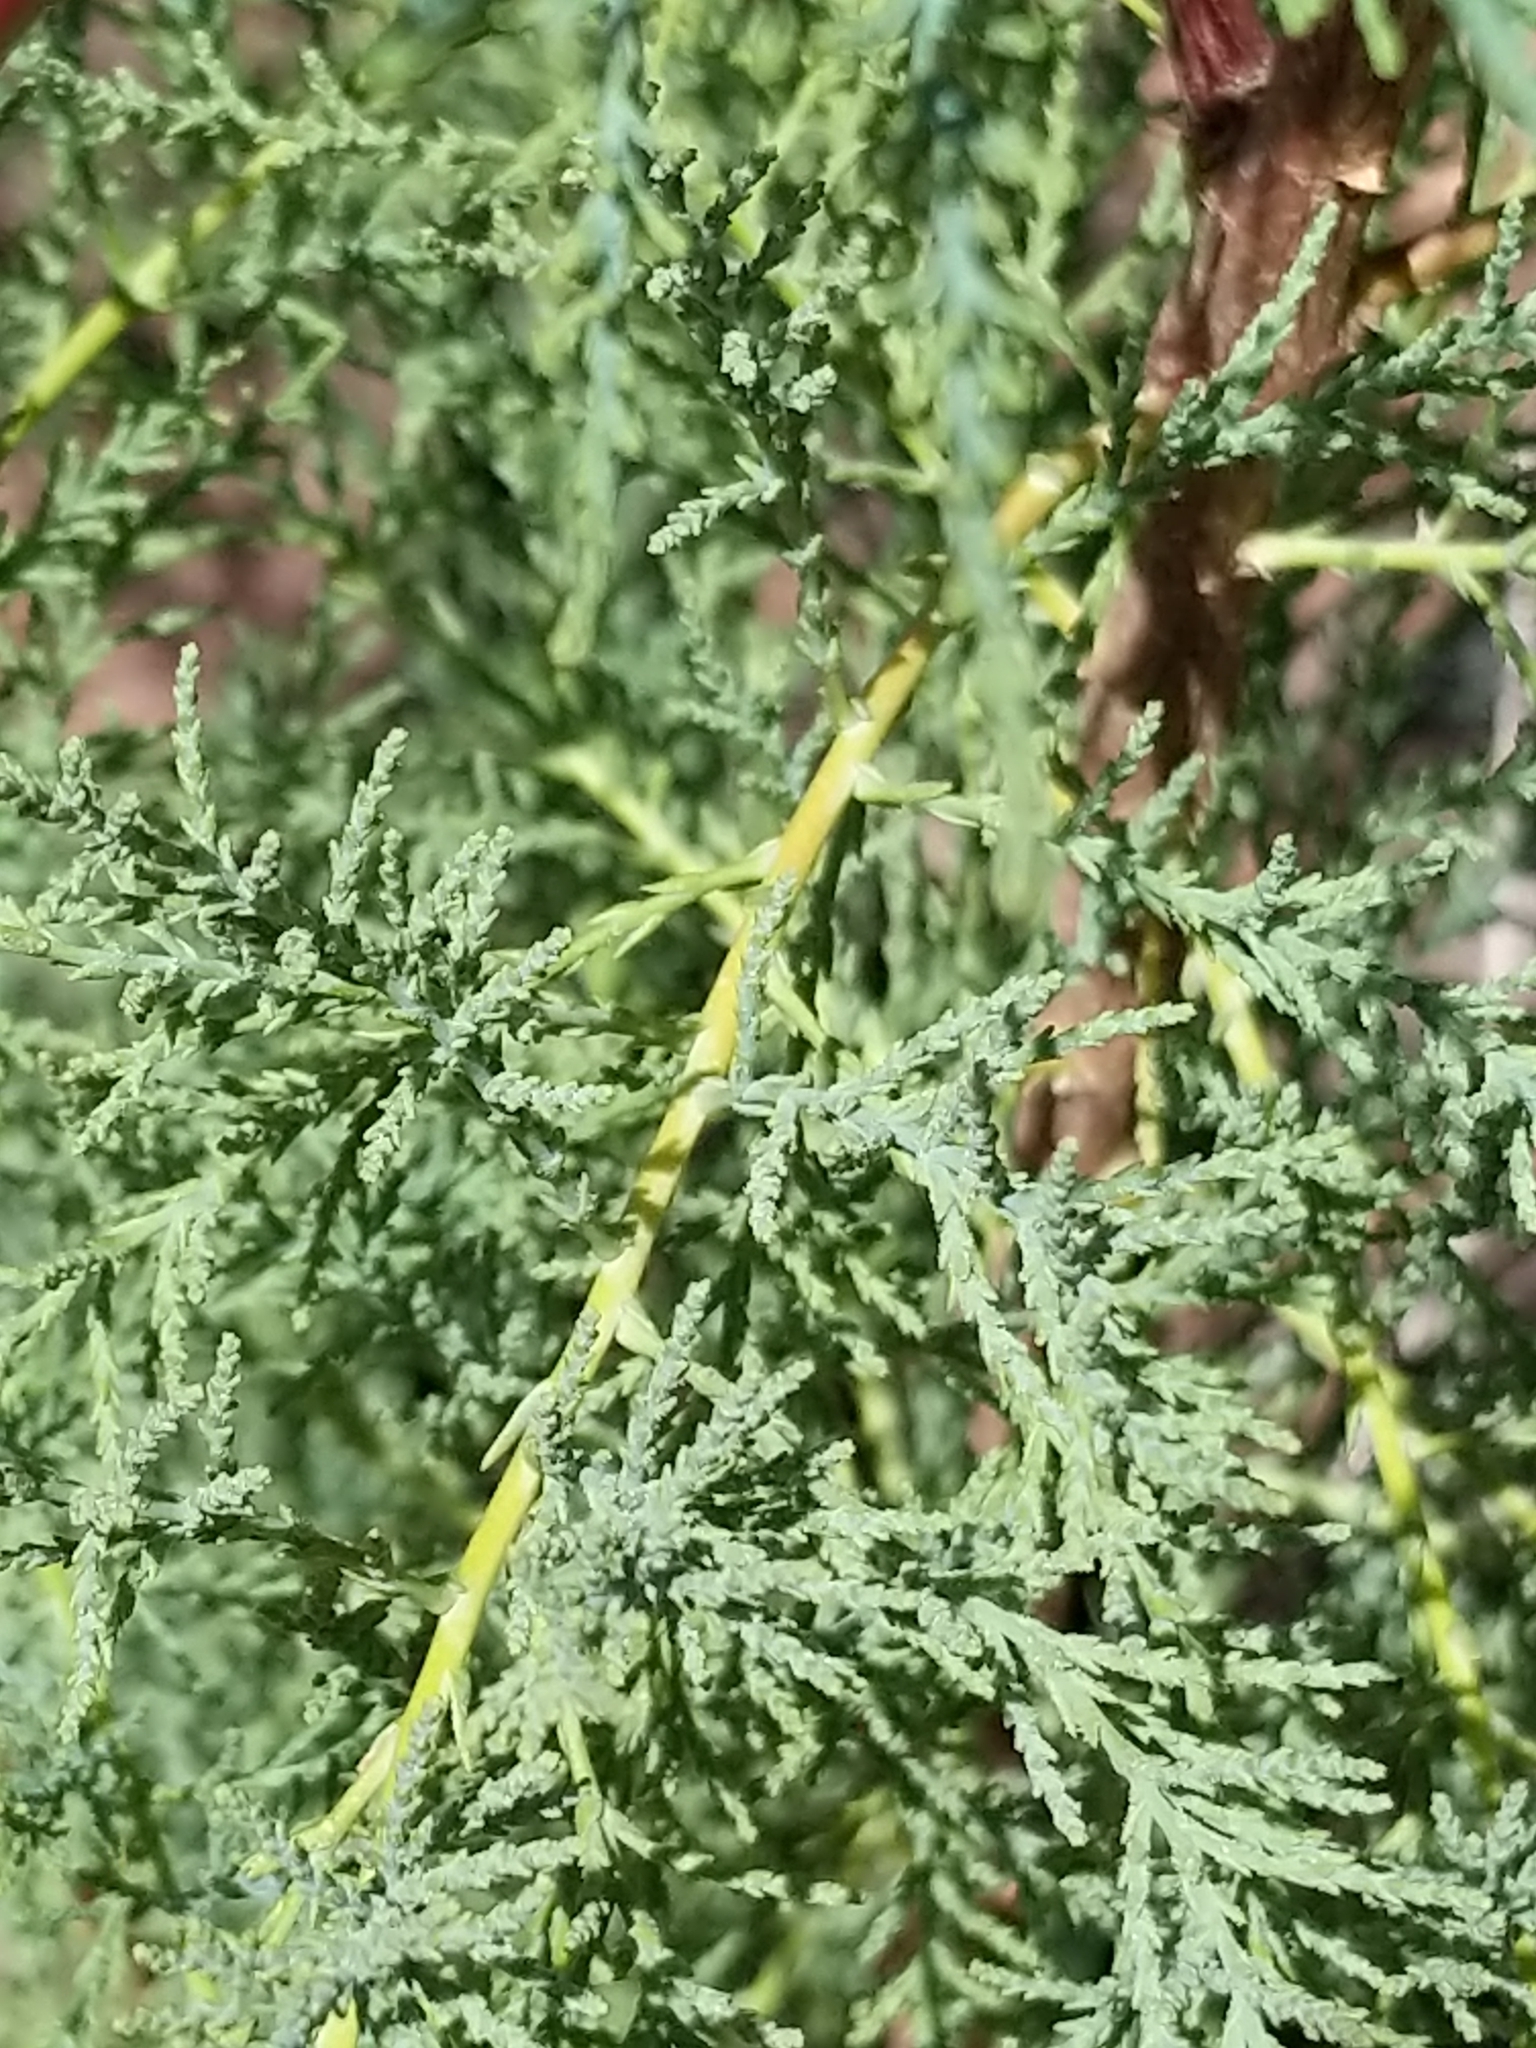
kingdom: Plantae
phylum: Tracheophyta
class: Magnoliopsida
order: Caryophyllales
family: Tamaricaceae
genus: Tamarix
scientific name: Tamarix
